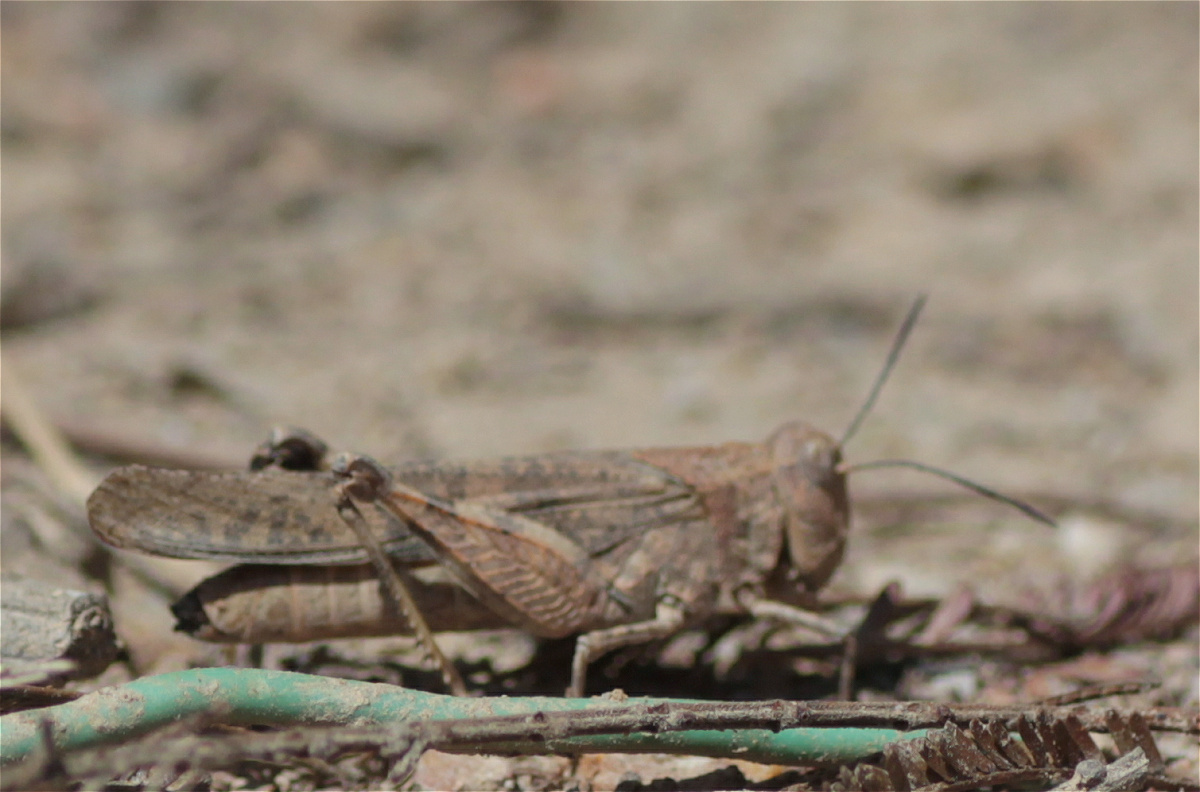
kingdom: Animalia
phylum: Arthropoda
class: Insecta
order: Orthoptera
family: Acrididae
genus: Lactista
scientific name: Lactista stramineus
